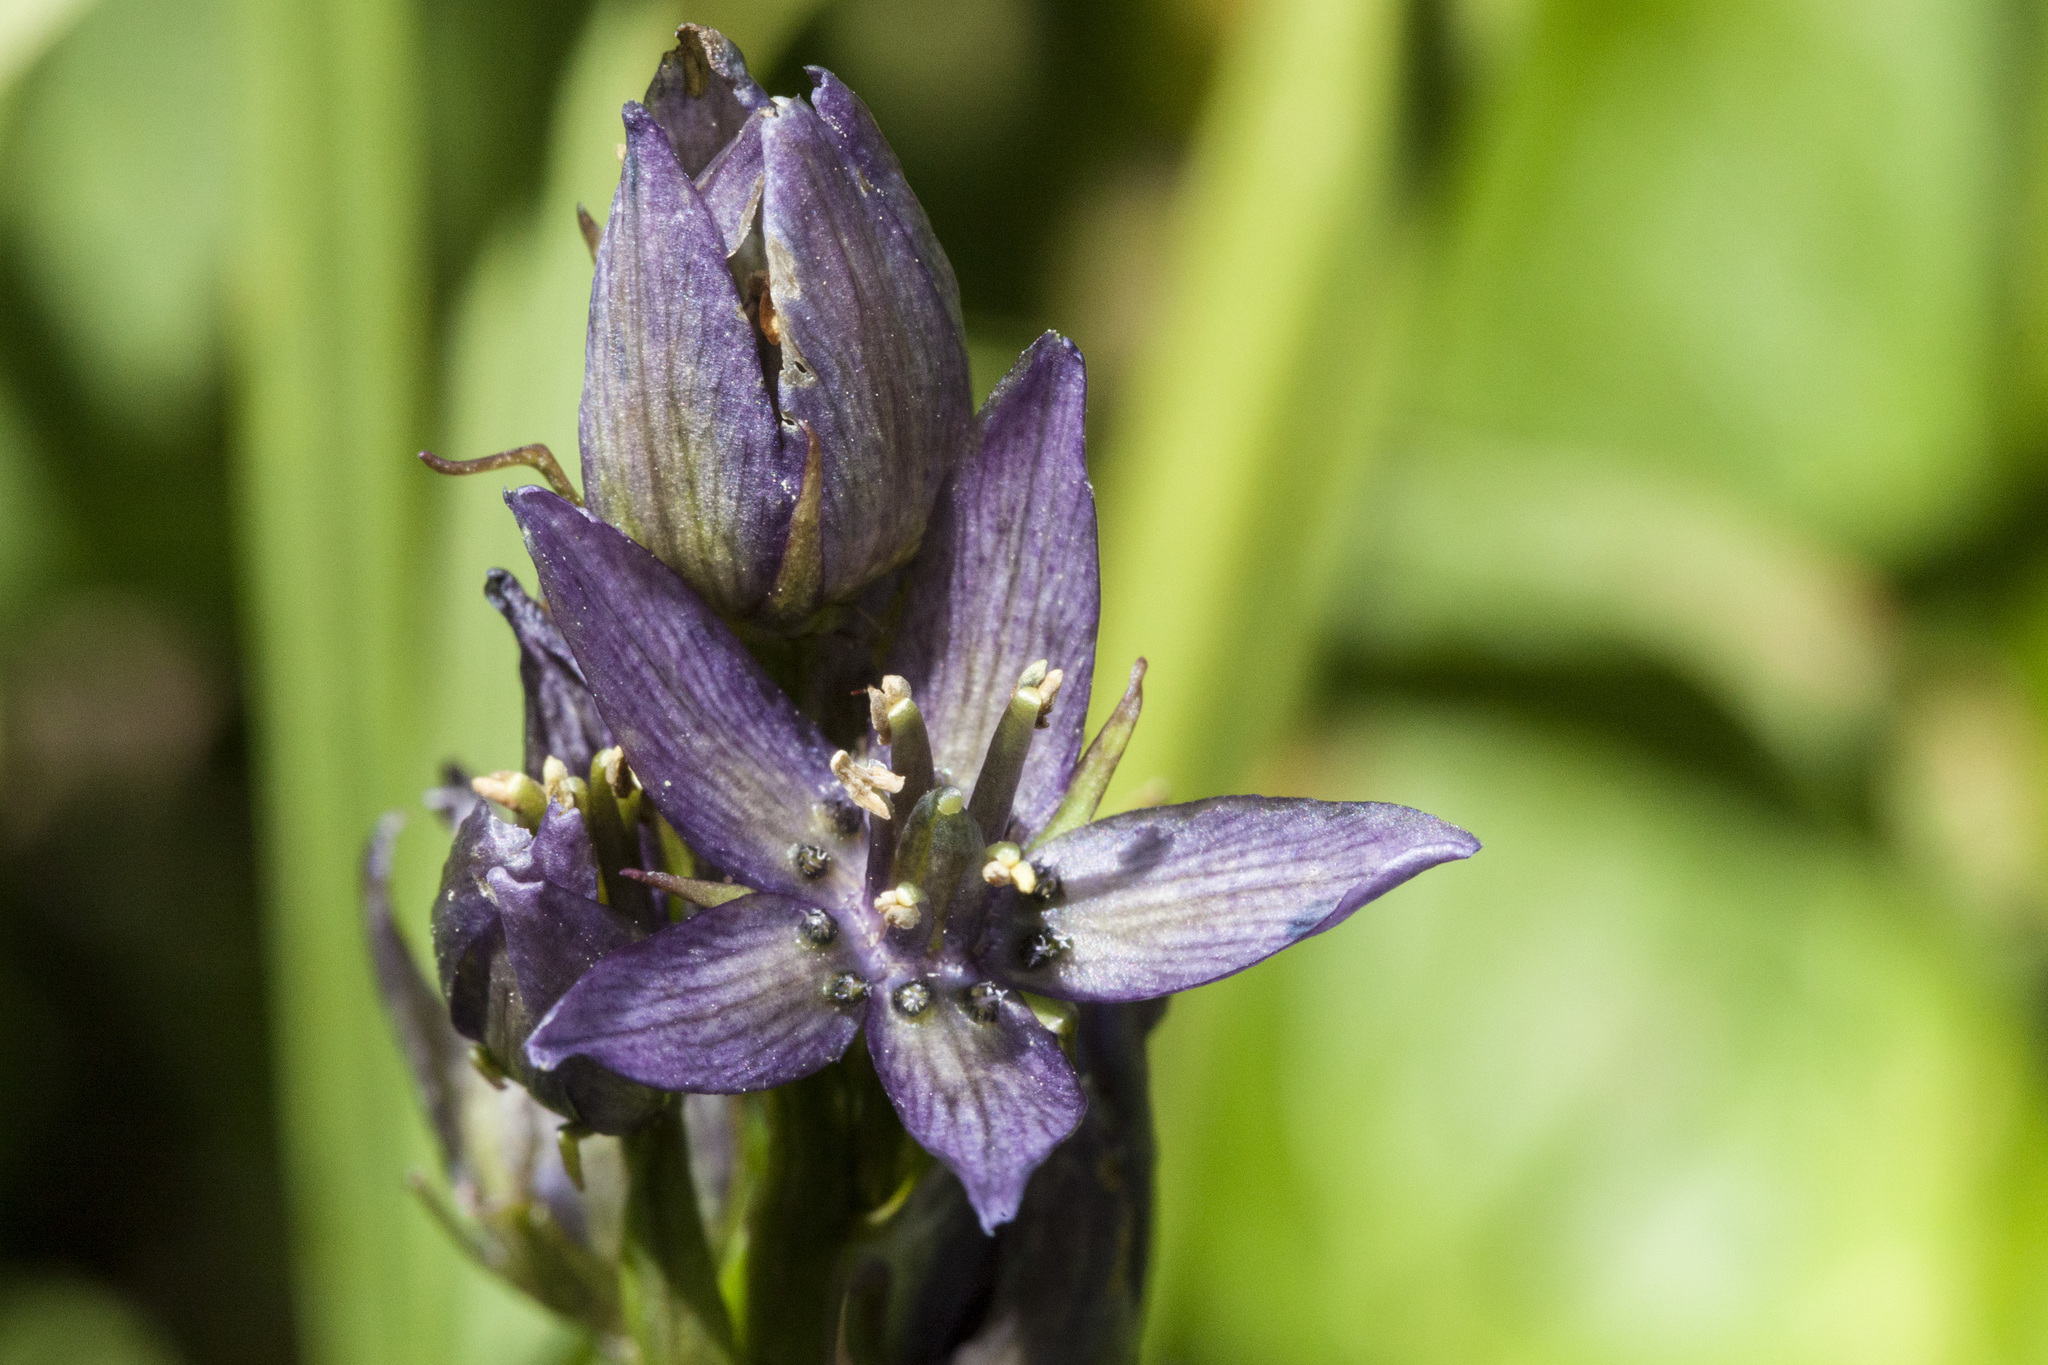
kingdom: Plantae
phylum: Tracheophyta
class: Magnoliopsida
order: Gentianales
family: Gentianaceae
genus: Swertia
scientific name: Swertia perennis
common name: Alpine bog swertia
